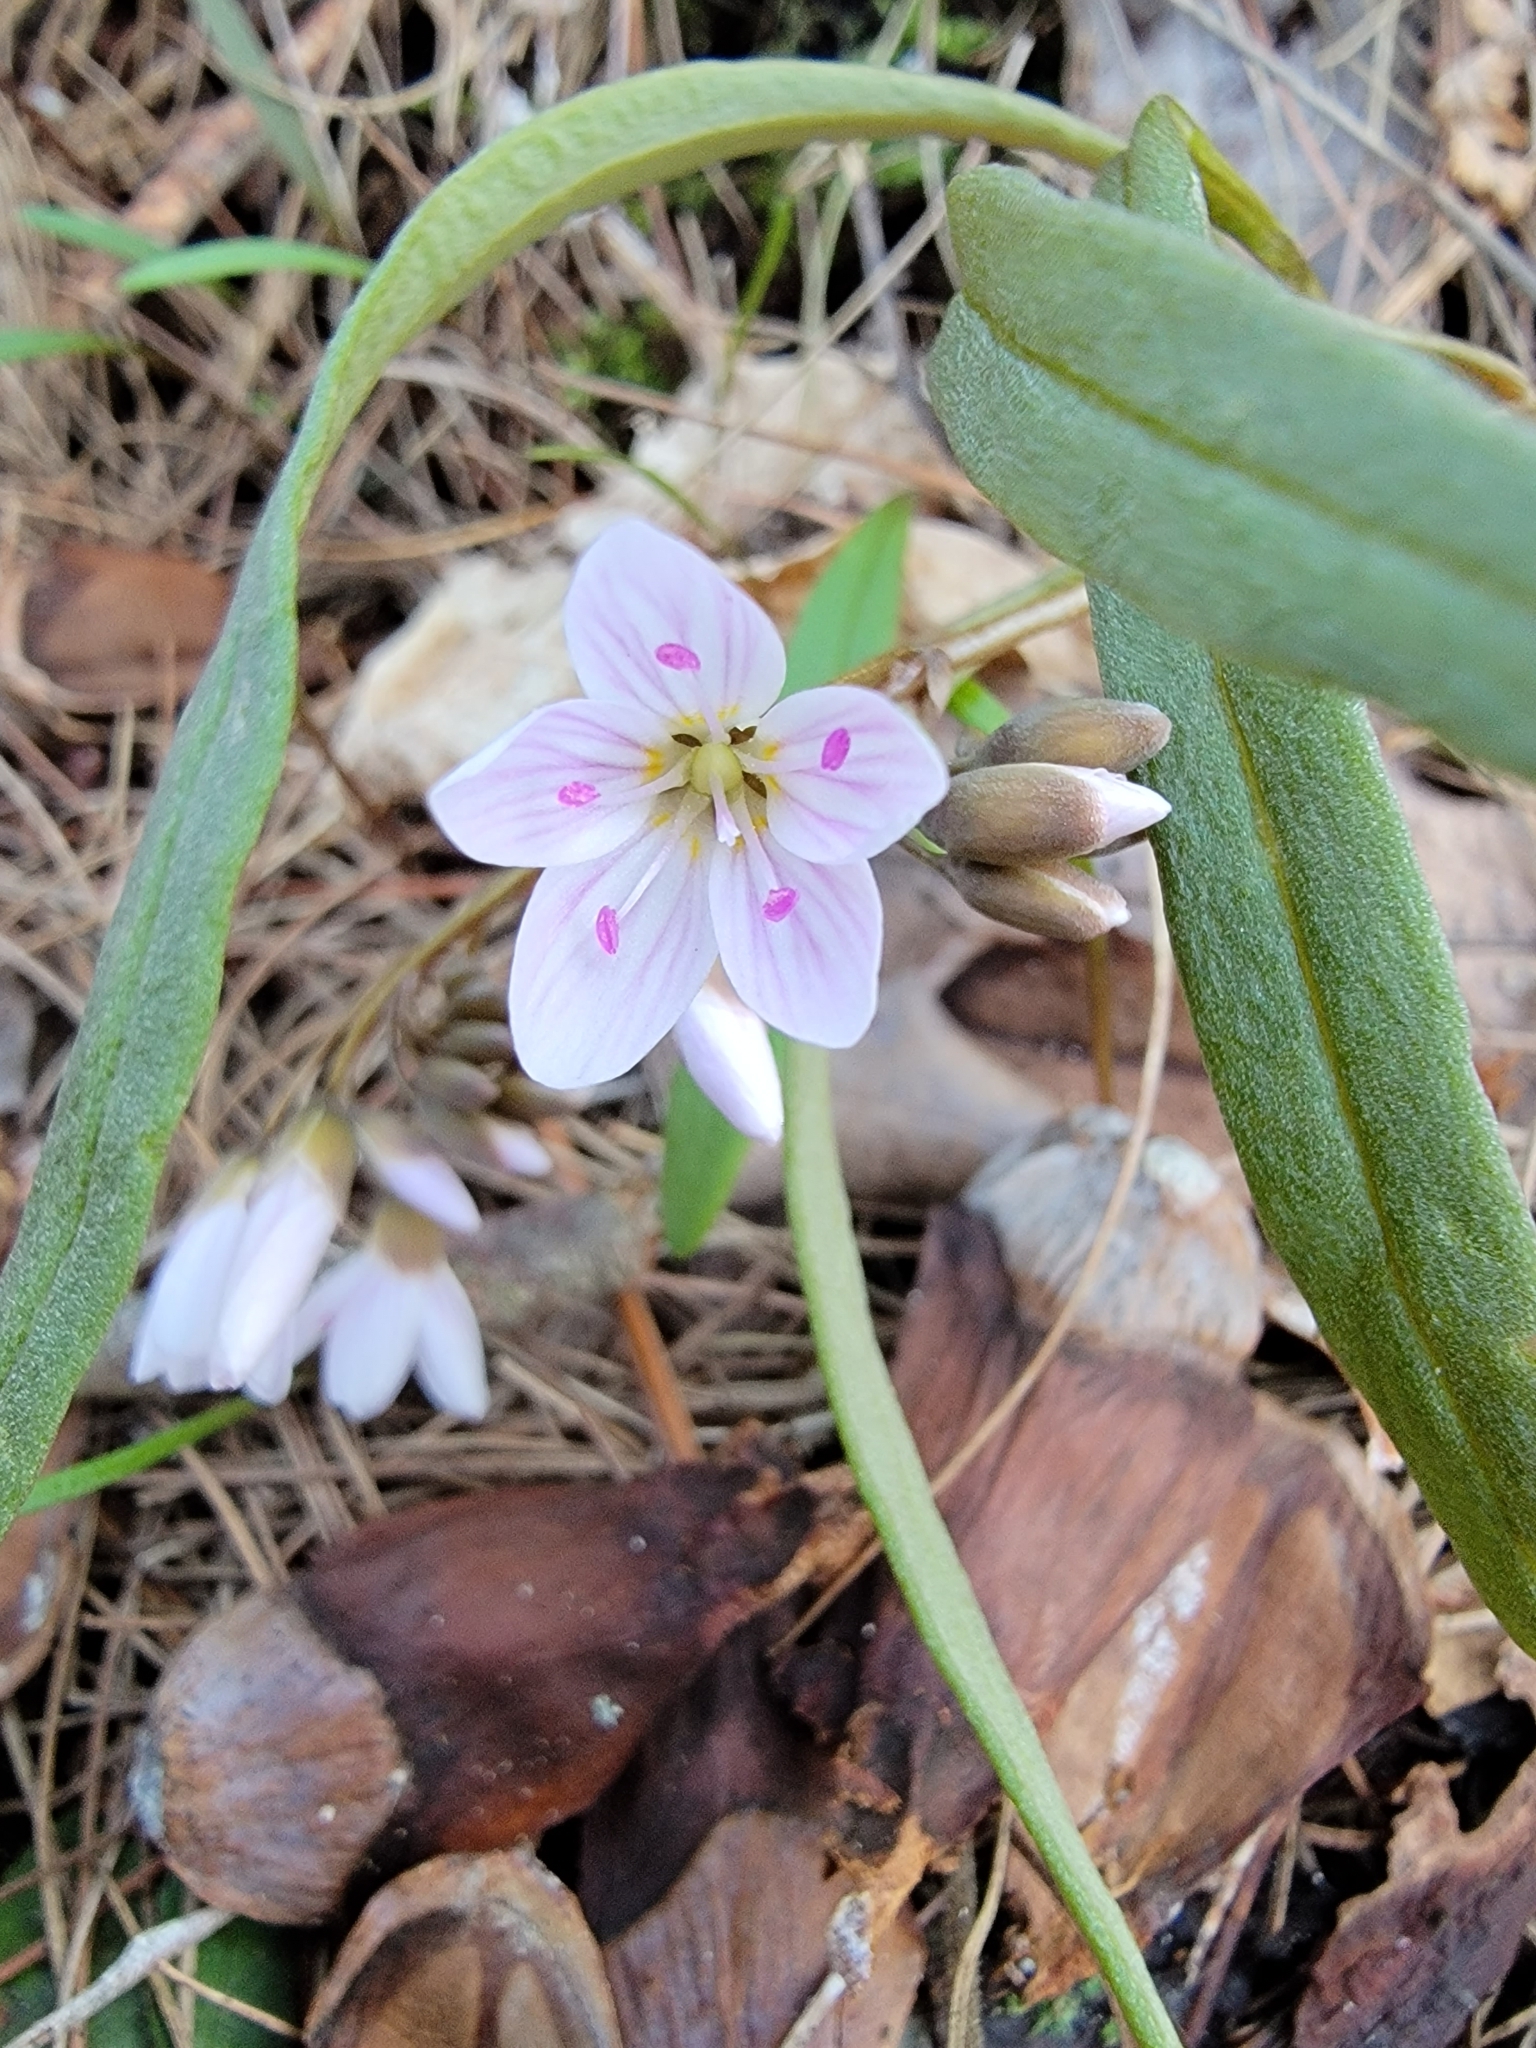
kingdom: Plantae
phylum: Tracheophyta
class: Magnoliopsida
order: Caryophyllales
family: Montiaceae
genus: Claytonia
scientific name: Claytonia virginica
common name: Virginia springbeauty
